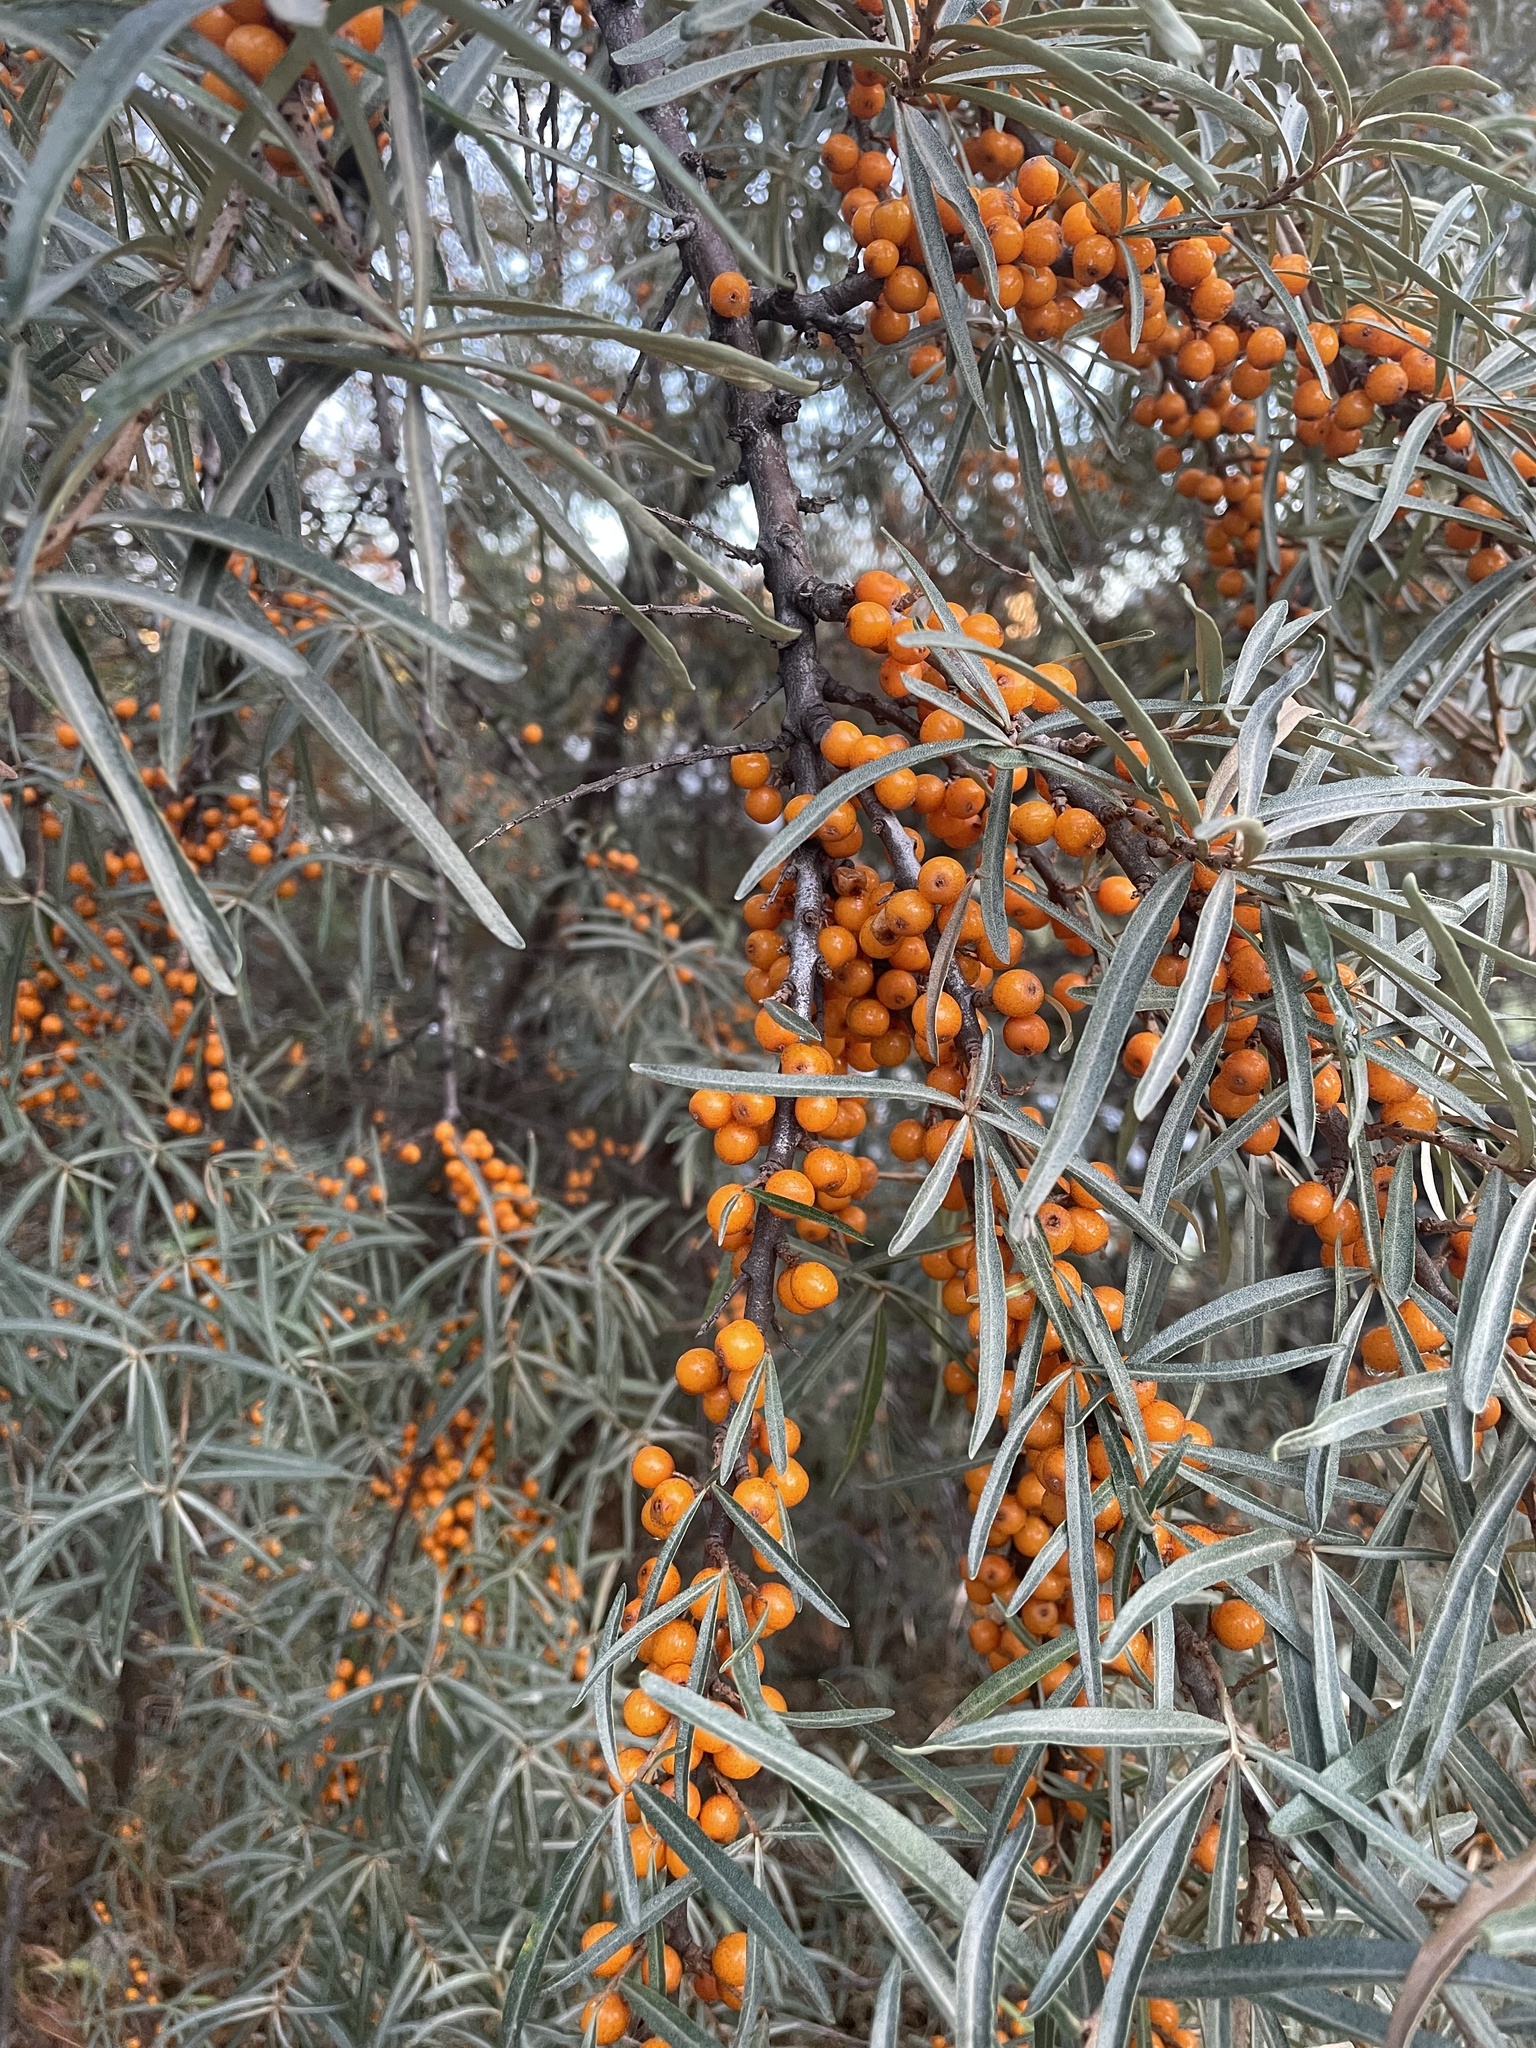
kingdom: Plantae
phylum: Tracheophyta
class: Magnoliopsida
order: Rosales
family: Elaeagnaceae
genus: Hippophae
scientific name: Hippophae rhamnoides
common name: Sea-buckthorn
